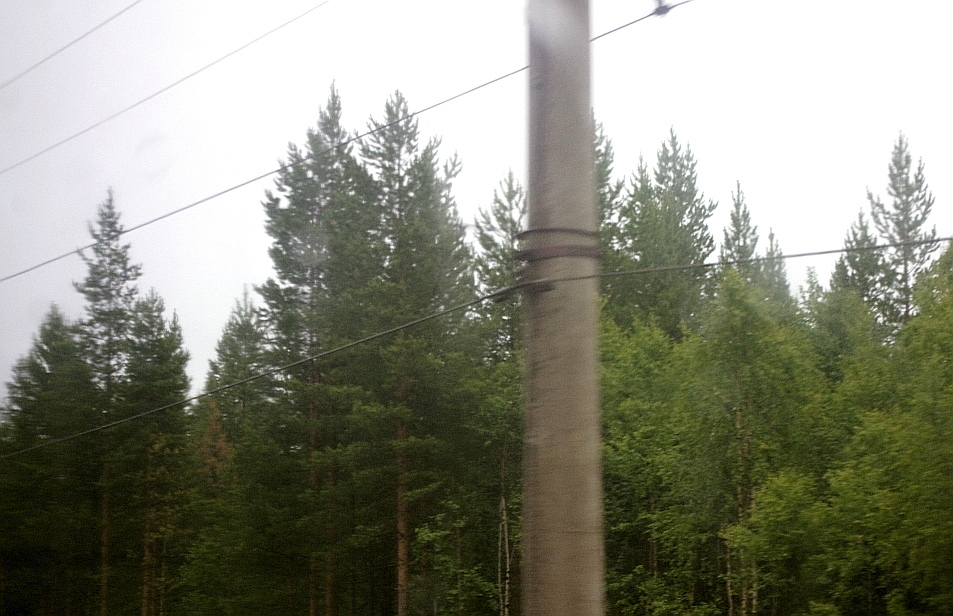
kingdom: Plantae
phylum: Tracheophyta
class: Pinopsida
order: Pinales
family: Pinaceae
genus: Pinus
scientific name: Pinus sylvestris
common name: Scots pine
